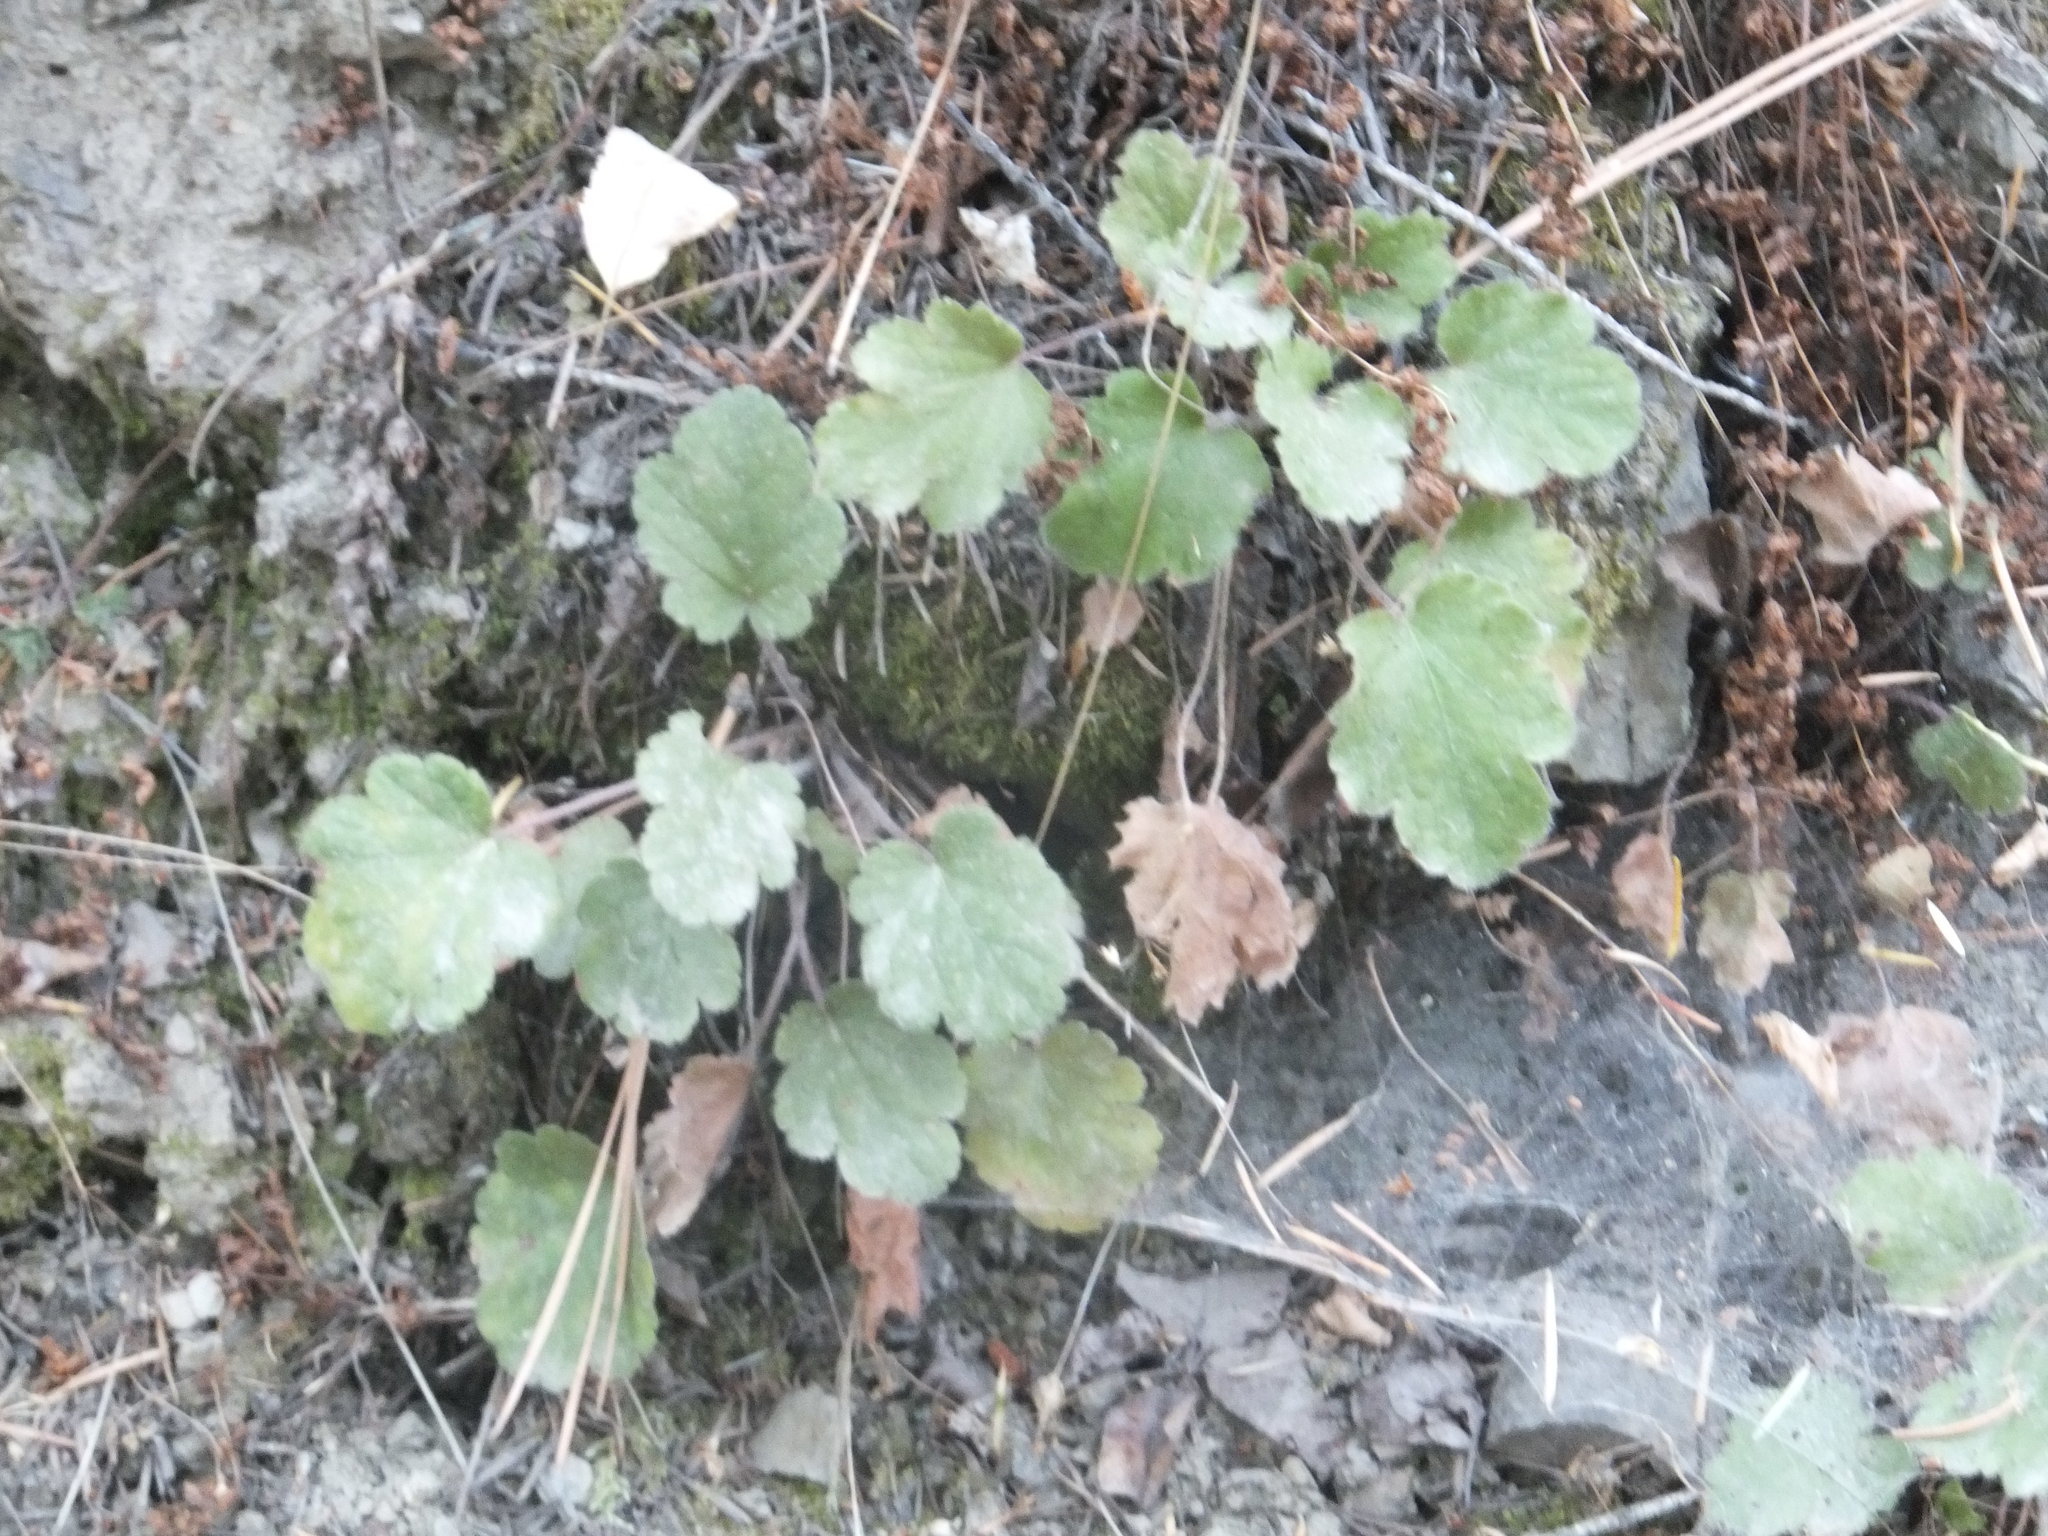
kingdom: Plantae
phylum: Tracheophyta
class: Magnoliopsida
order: Saxifragales
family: Saxifragaceae
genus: Heuchera
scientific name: Heuchera cylindrica
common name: Mat alumroot
